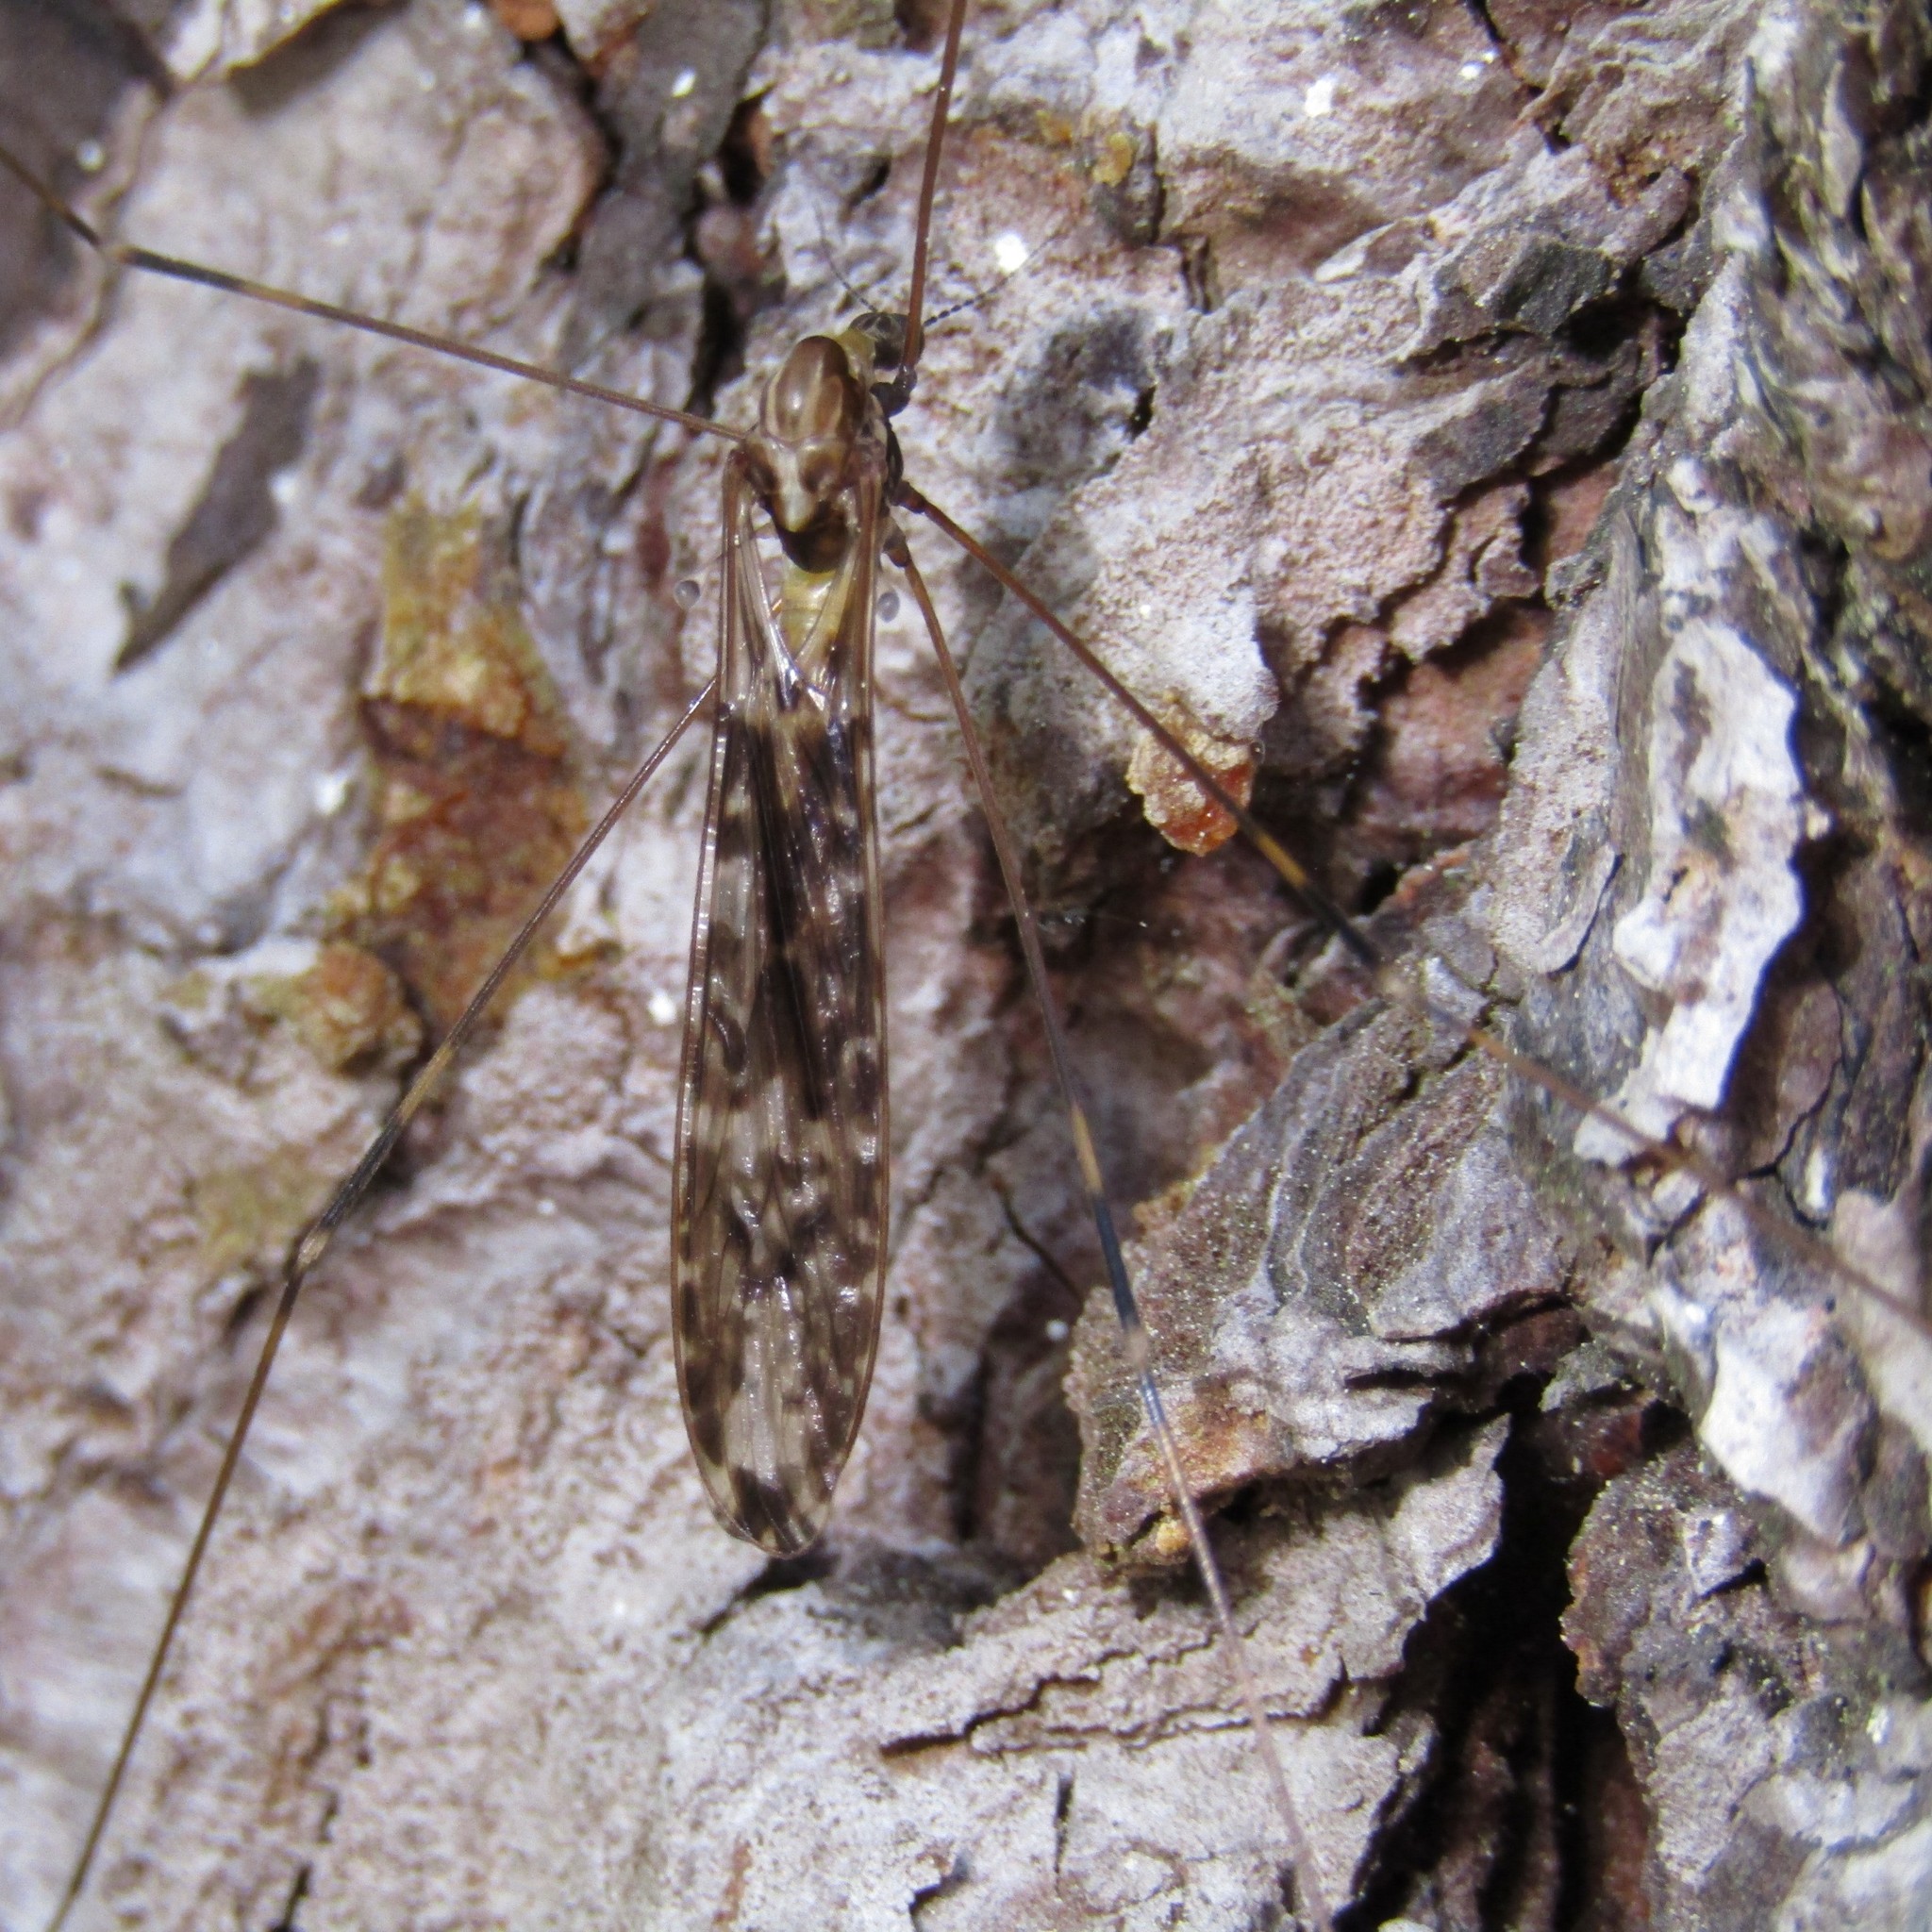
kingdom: Animalia
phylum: Arthropoda
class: Insecta
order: Diptera
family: Limoniidae
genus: Discobola
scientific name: Discobola dohrni
